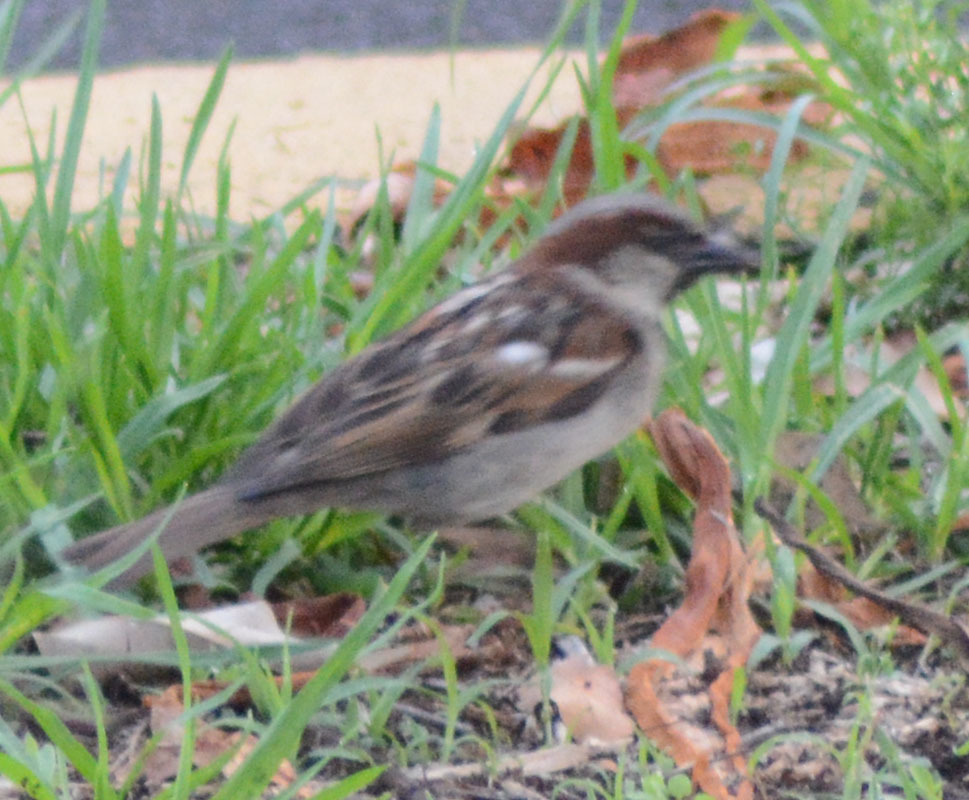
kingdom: Animalia
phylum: Chordata
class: Aves
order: Passeriformes
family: Passeridae
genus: Passer
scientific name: Passer domesticus
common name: House sparrow
